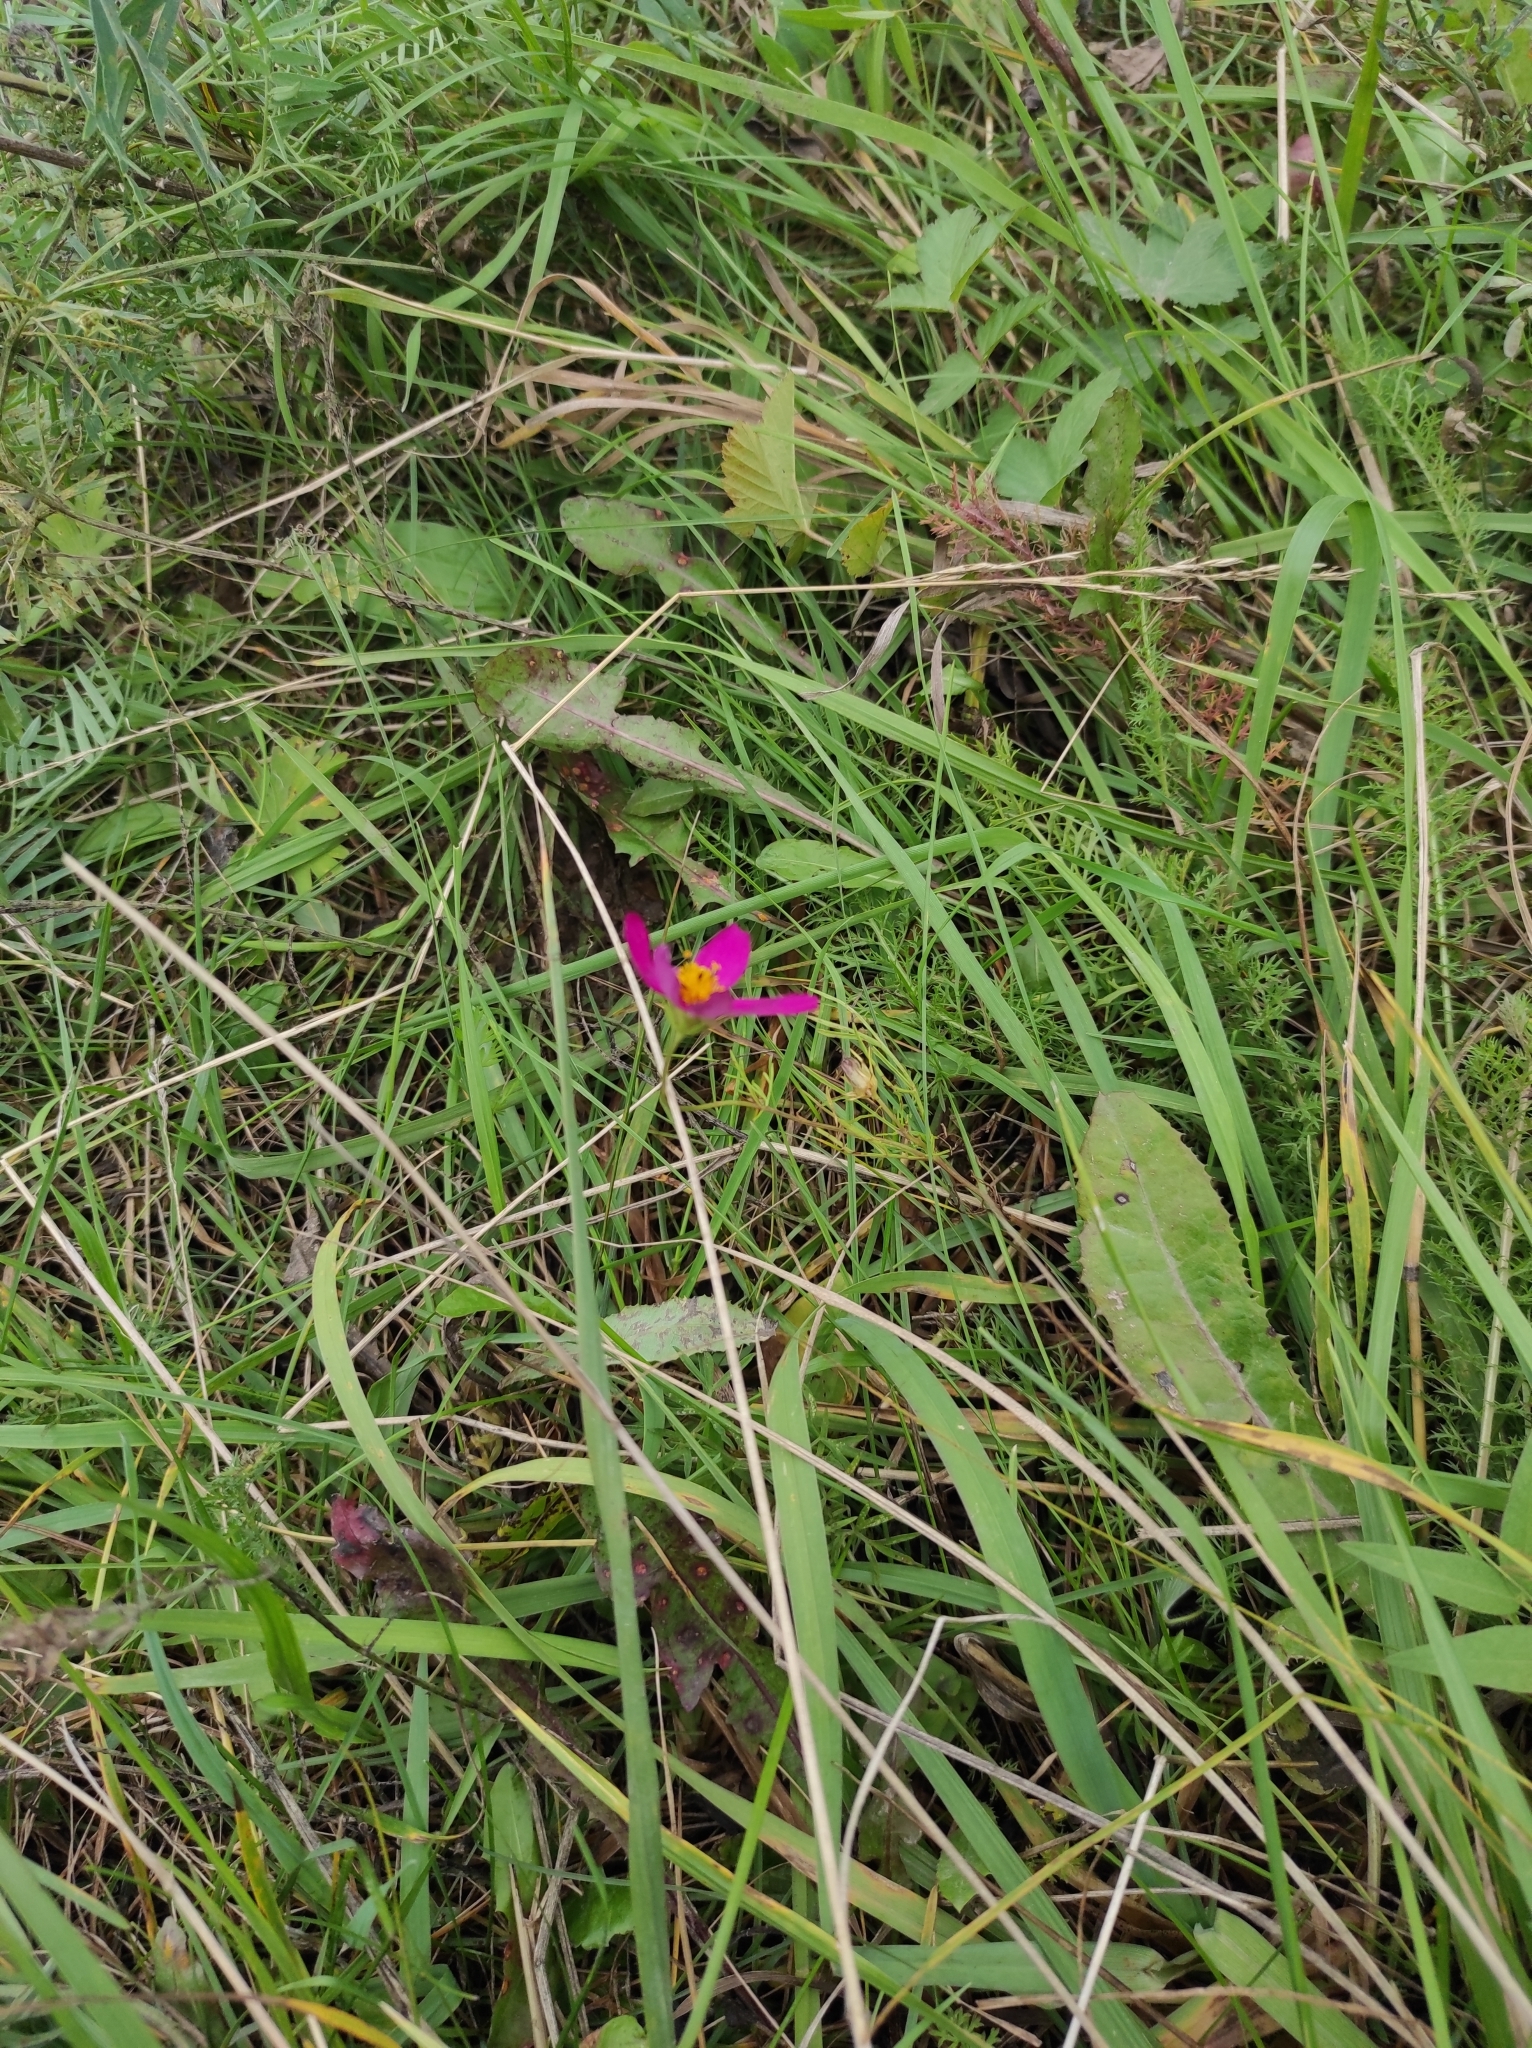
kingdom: Plantae
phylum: Tracheophyta
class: Magnoliopsida
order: Asterales
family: Asteraceae
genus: Cosmos
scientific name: Cosmos bipinnatus
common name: Garden cosmos
